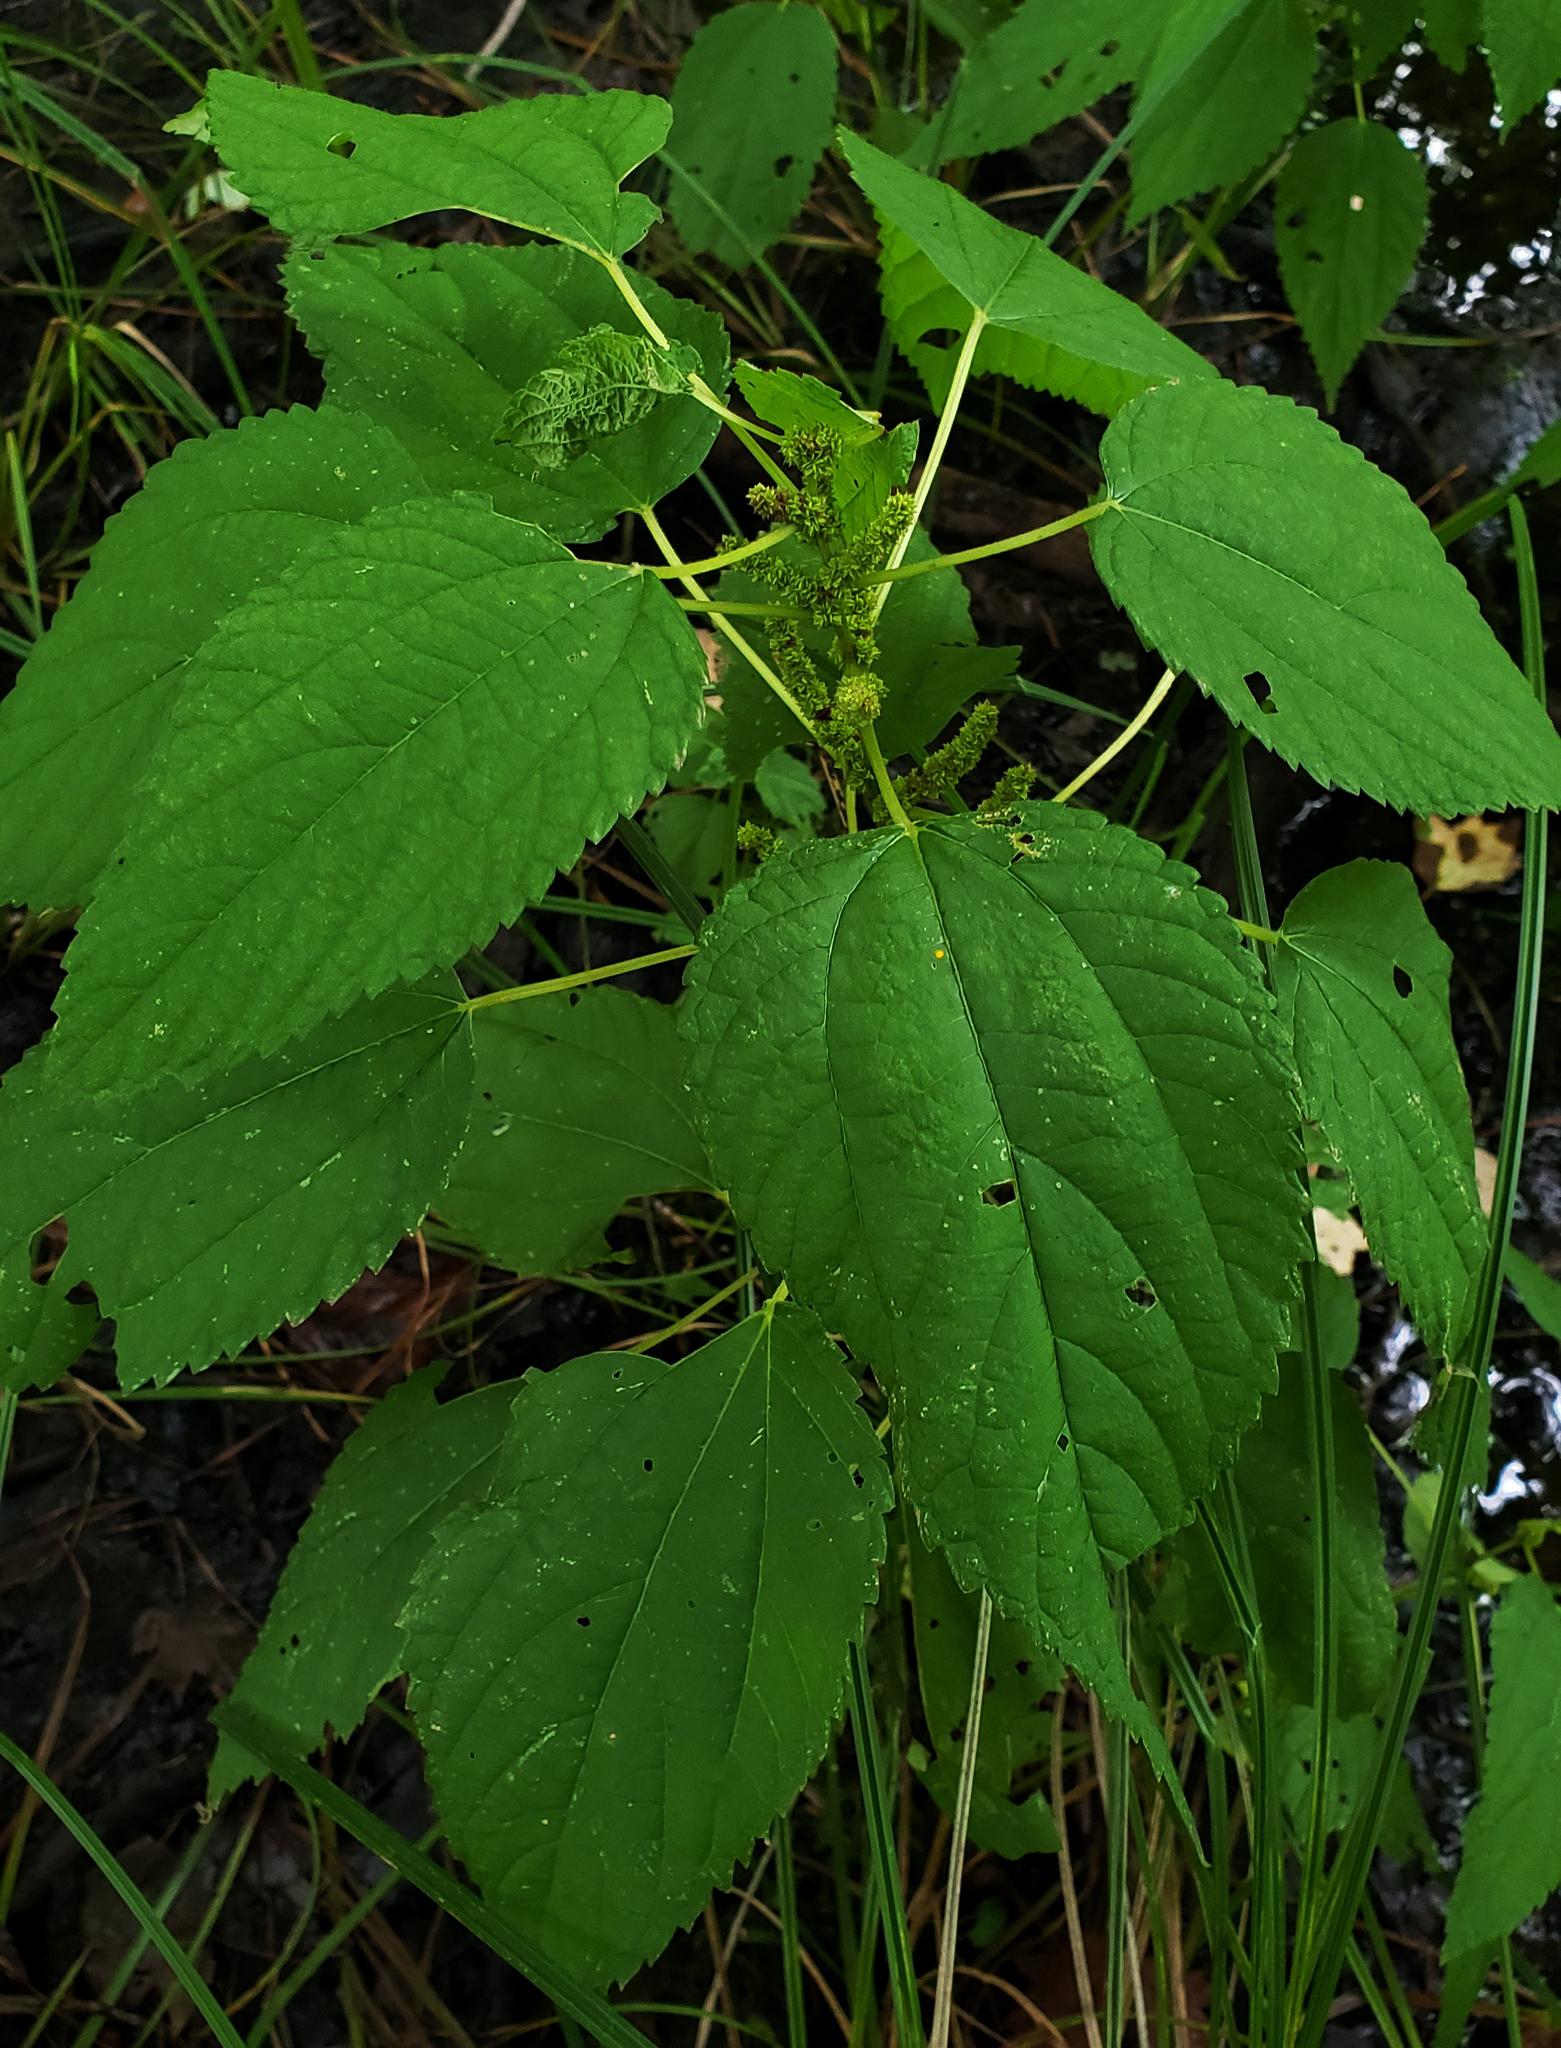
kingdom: Plantae
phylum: Tracheophyta
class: Magnoliopsida
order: Rosales
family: Urticaceae
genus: Boehmeria
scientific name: Boehmeria cylindrica
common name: Bog-hemp
